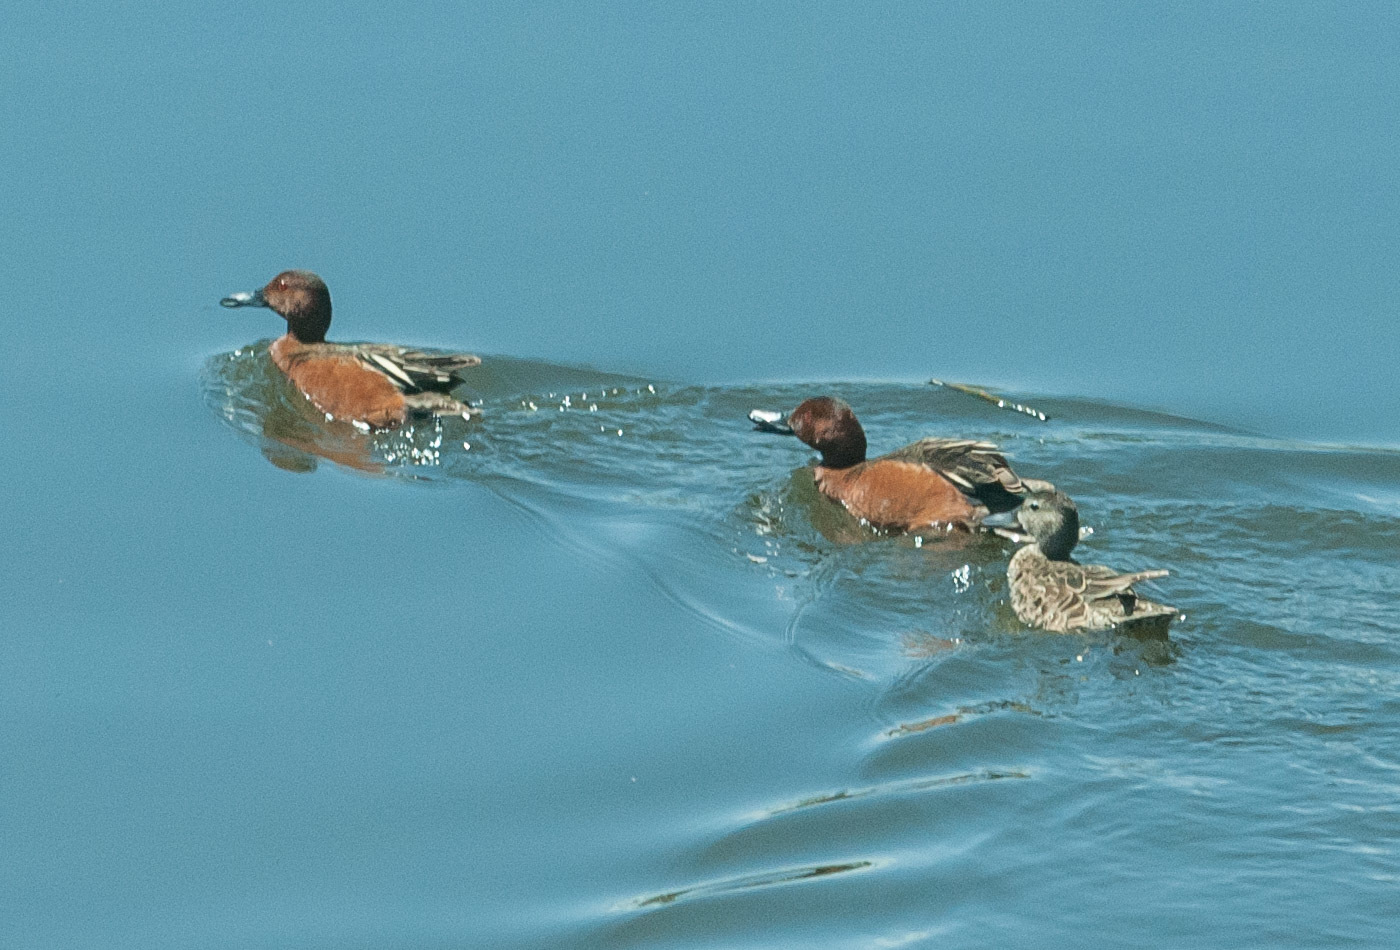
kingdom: Animalia
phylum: Chordata
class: Aves
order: Anseriformes
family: Anatidae
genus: Spatula
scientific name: Spatula cyanoptera
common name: Cinnamon teal
